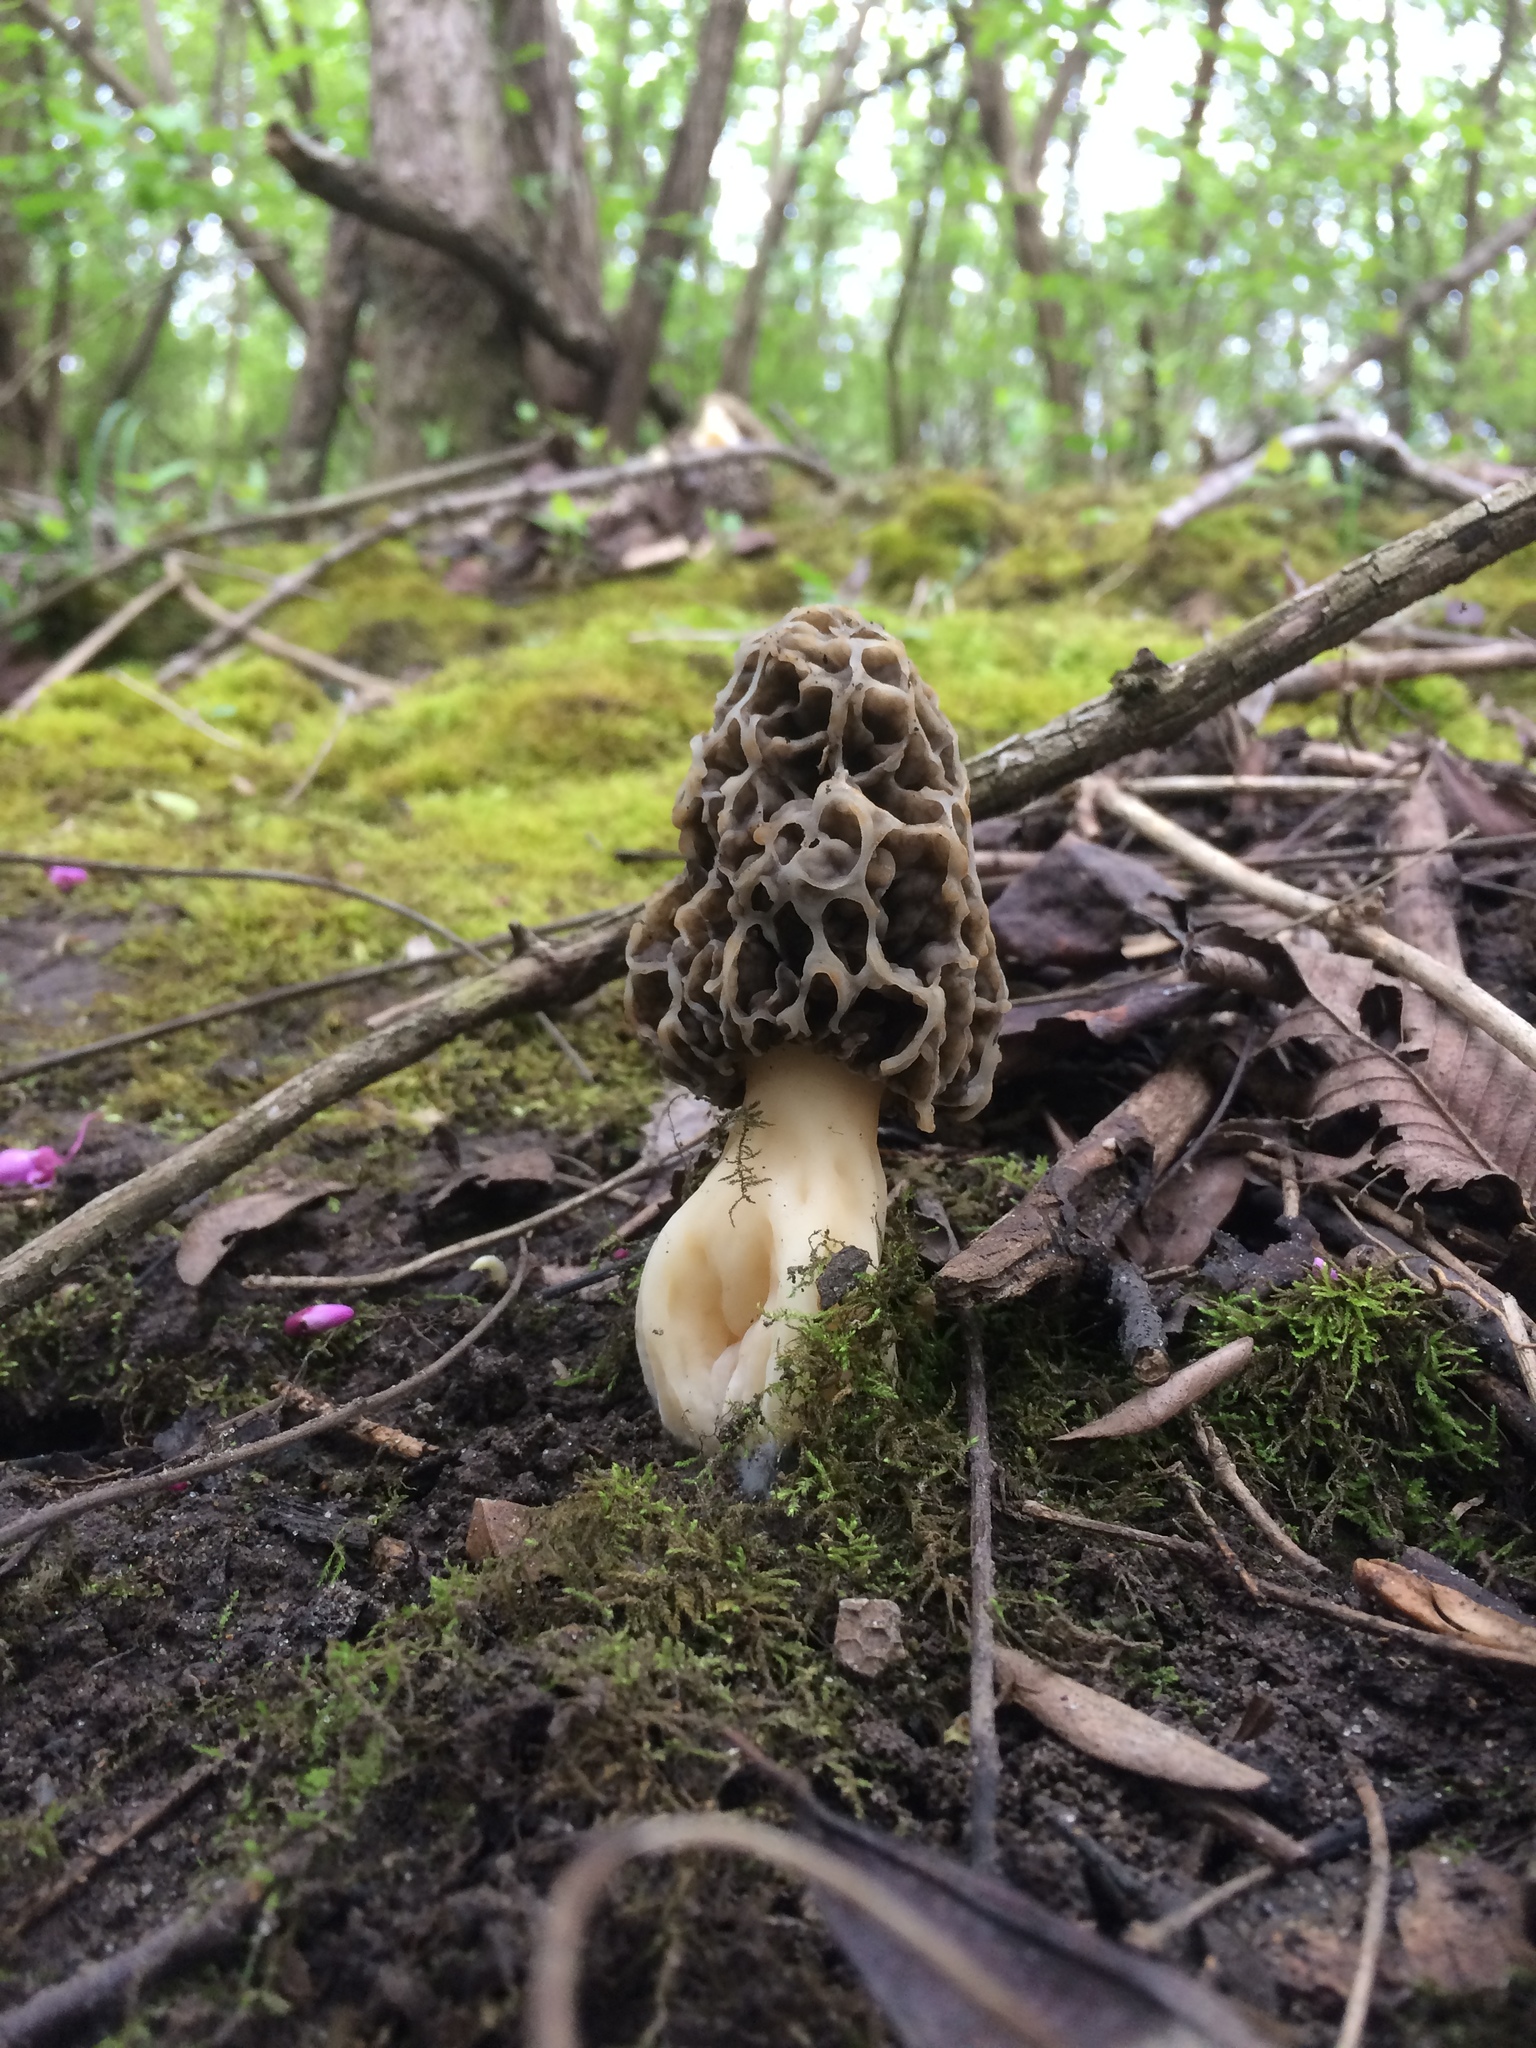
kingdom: Fungi
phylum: Ascomycota
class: Pezizomycetes
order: Pezizales
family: Morchellaceae
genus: Morchella
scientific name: Morchella americana
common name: White morel
